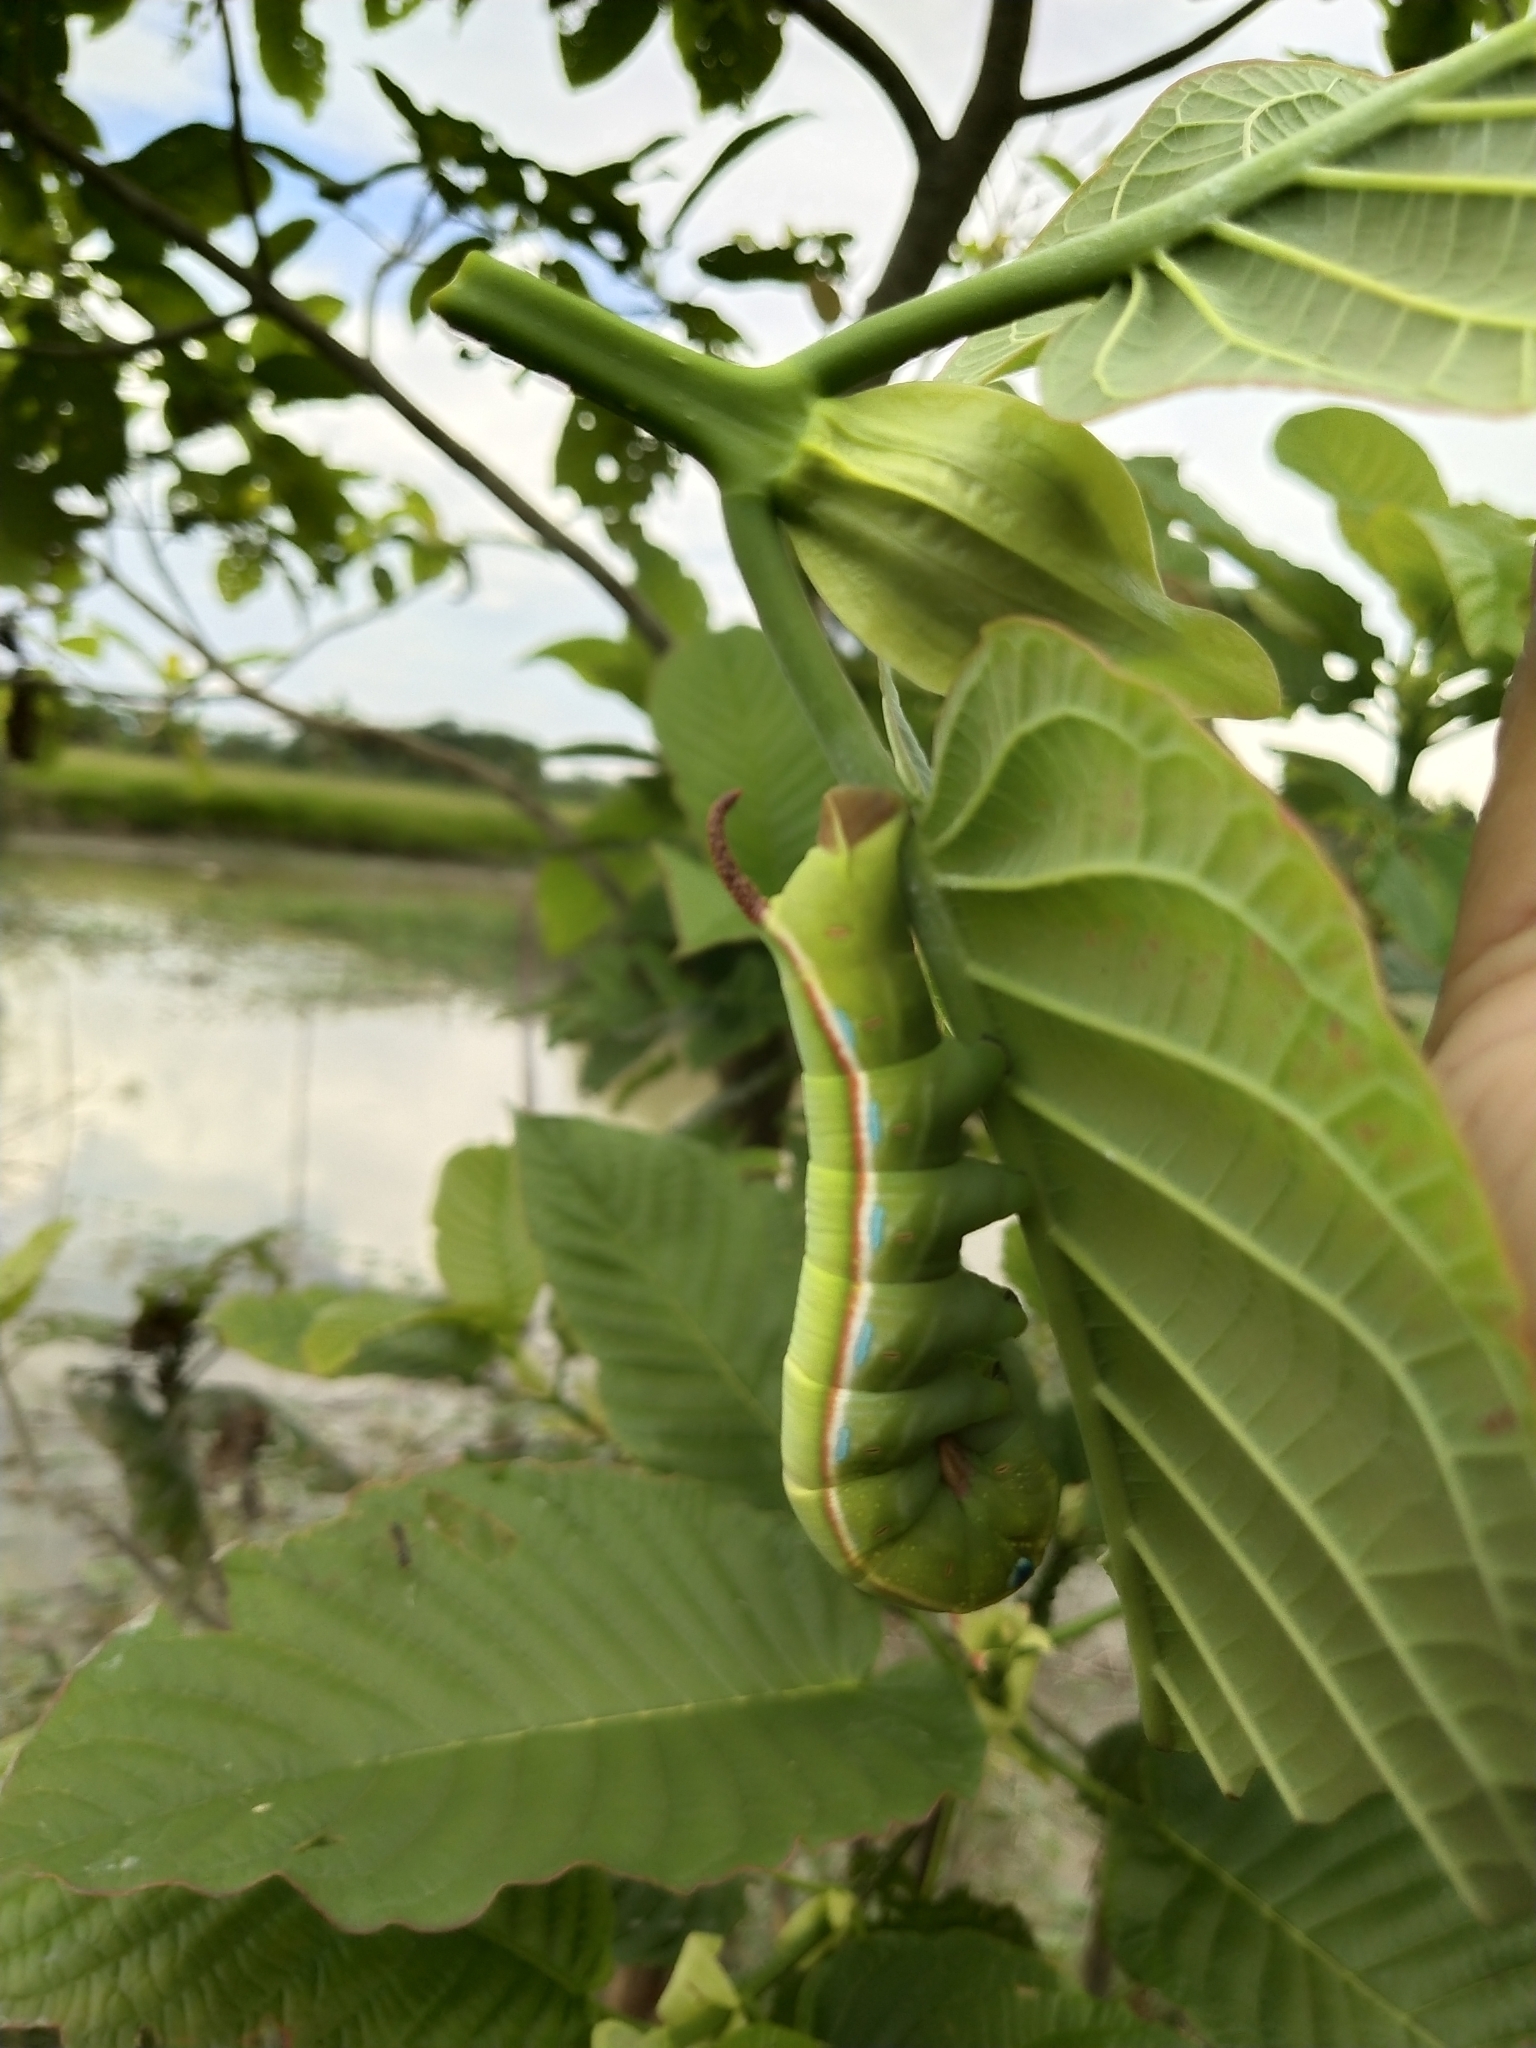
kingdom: Animalia
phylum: Arthropoda
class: Insecta
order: Lepidoptera
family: Sphingidae
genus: Daphnis
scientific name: Daphnis hypothous
